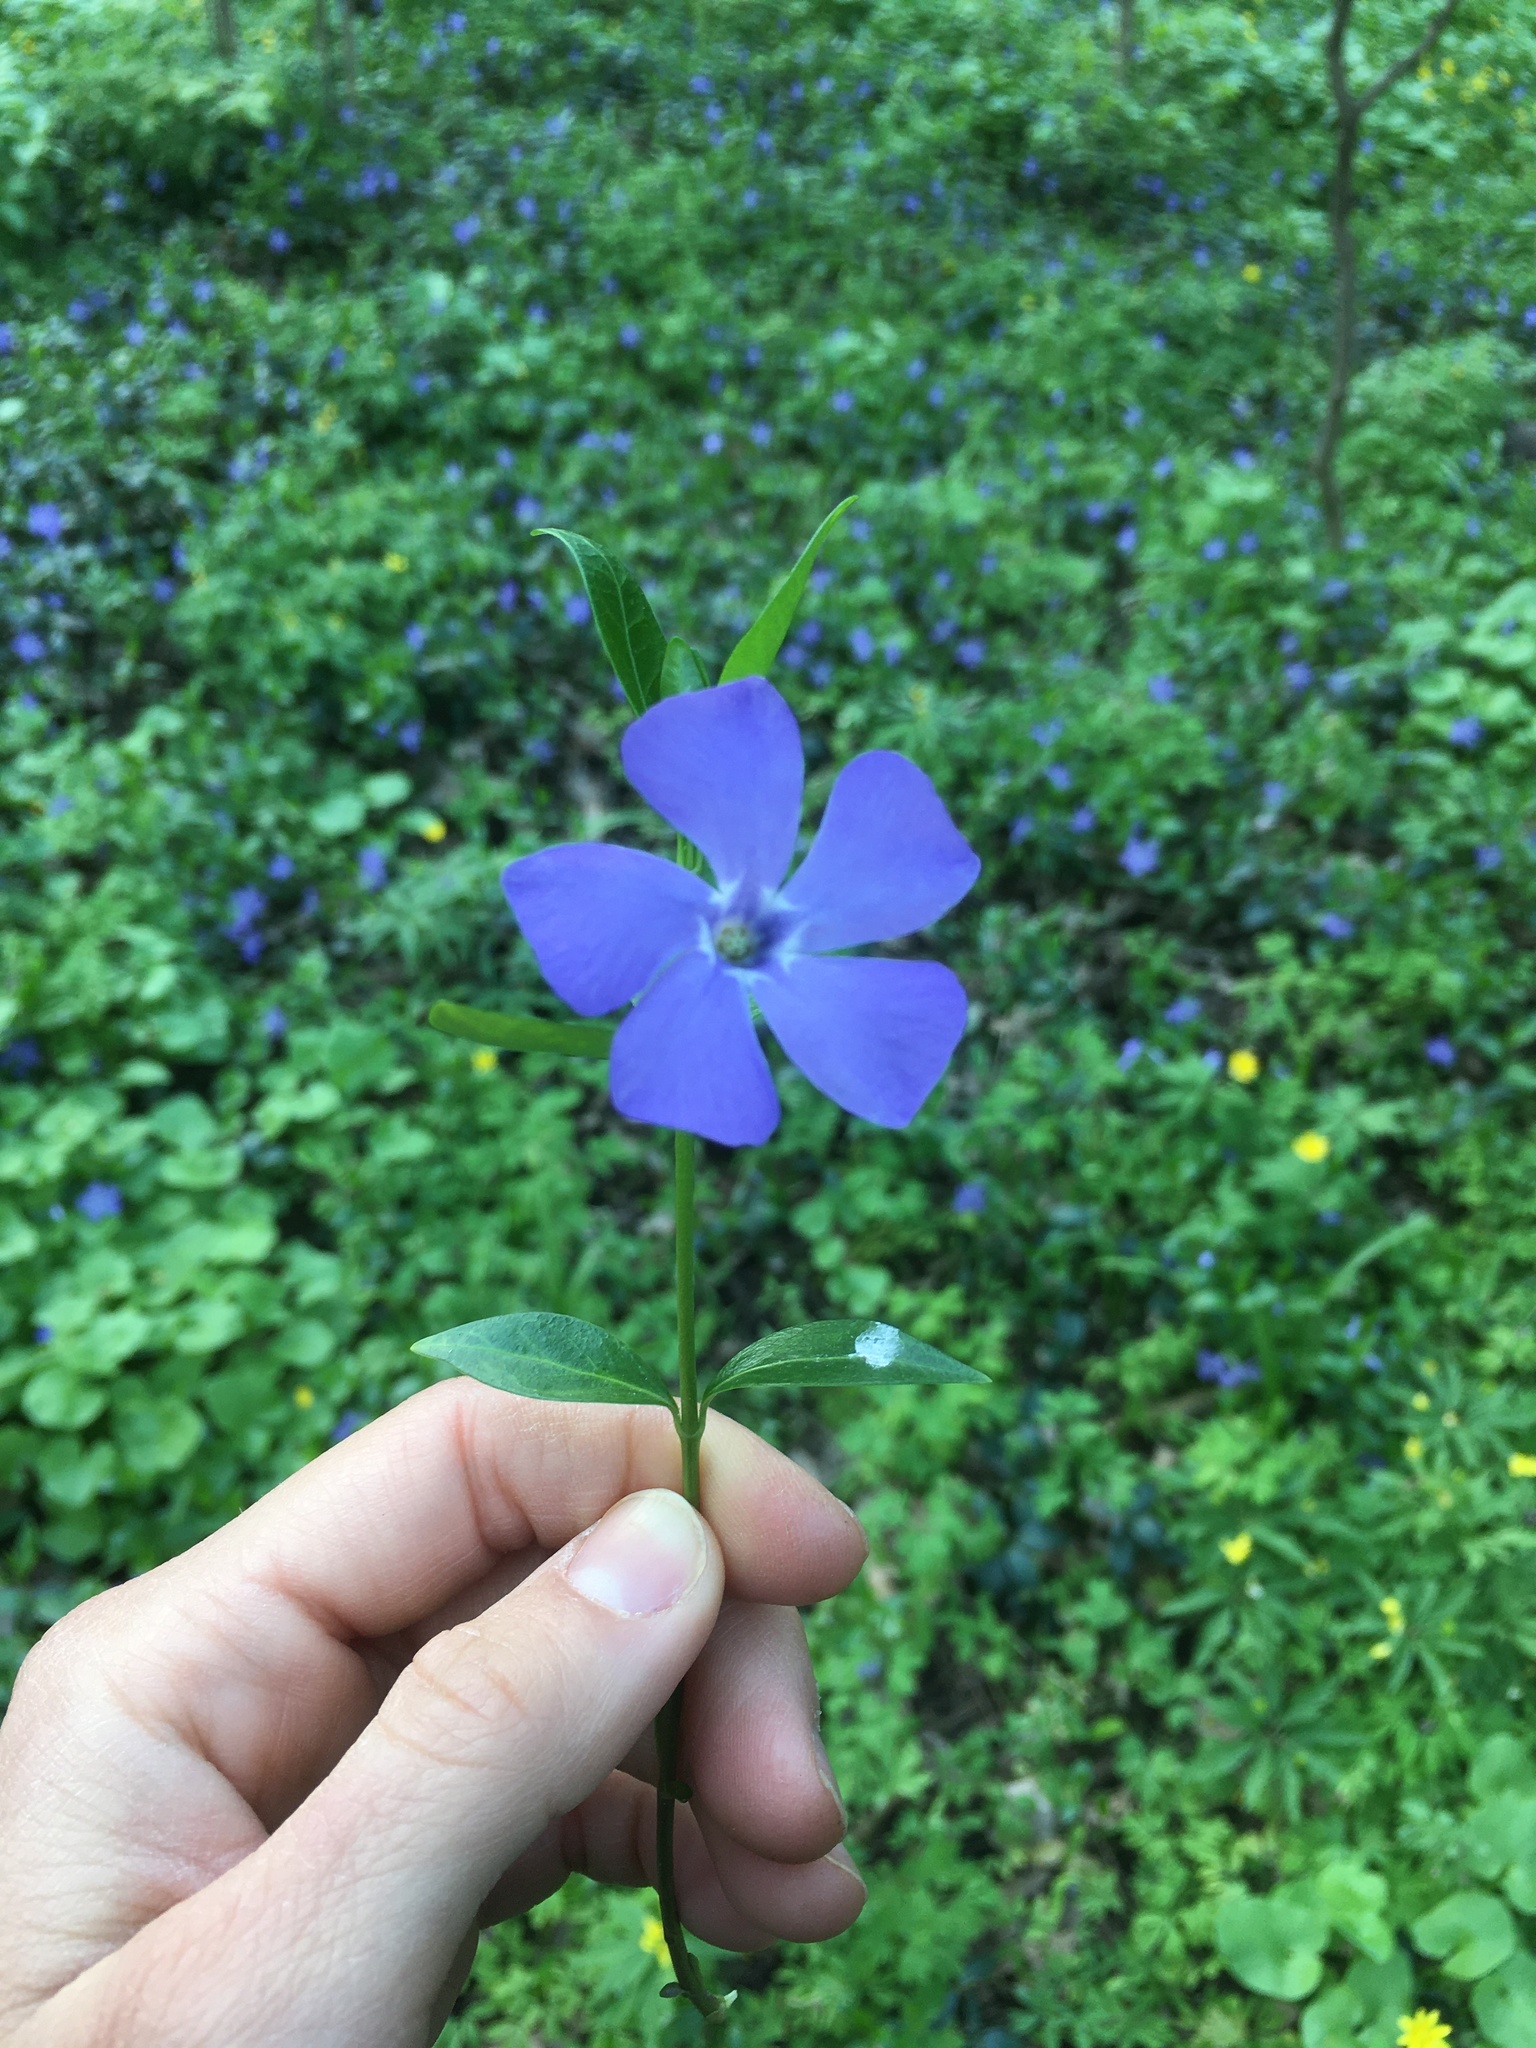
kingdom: Plantae
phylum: Tracheophyta
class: Magnoliopsida
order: Gentianales
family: Apocynaceae
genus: Vinca
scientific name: Vinca minor
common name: Lesser periwinkle
